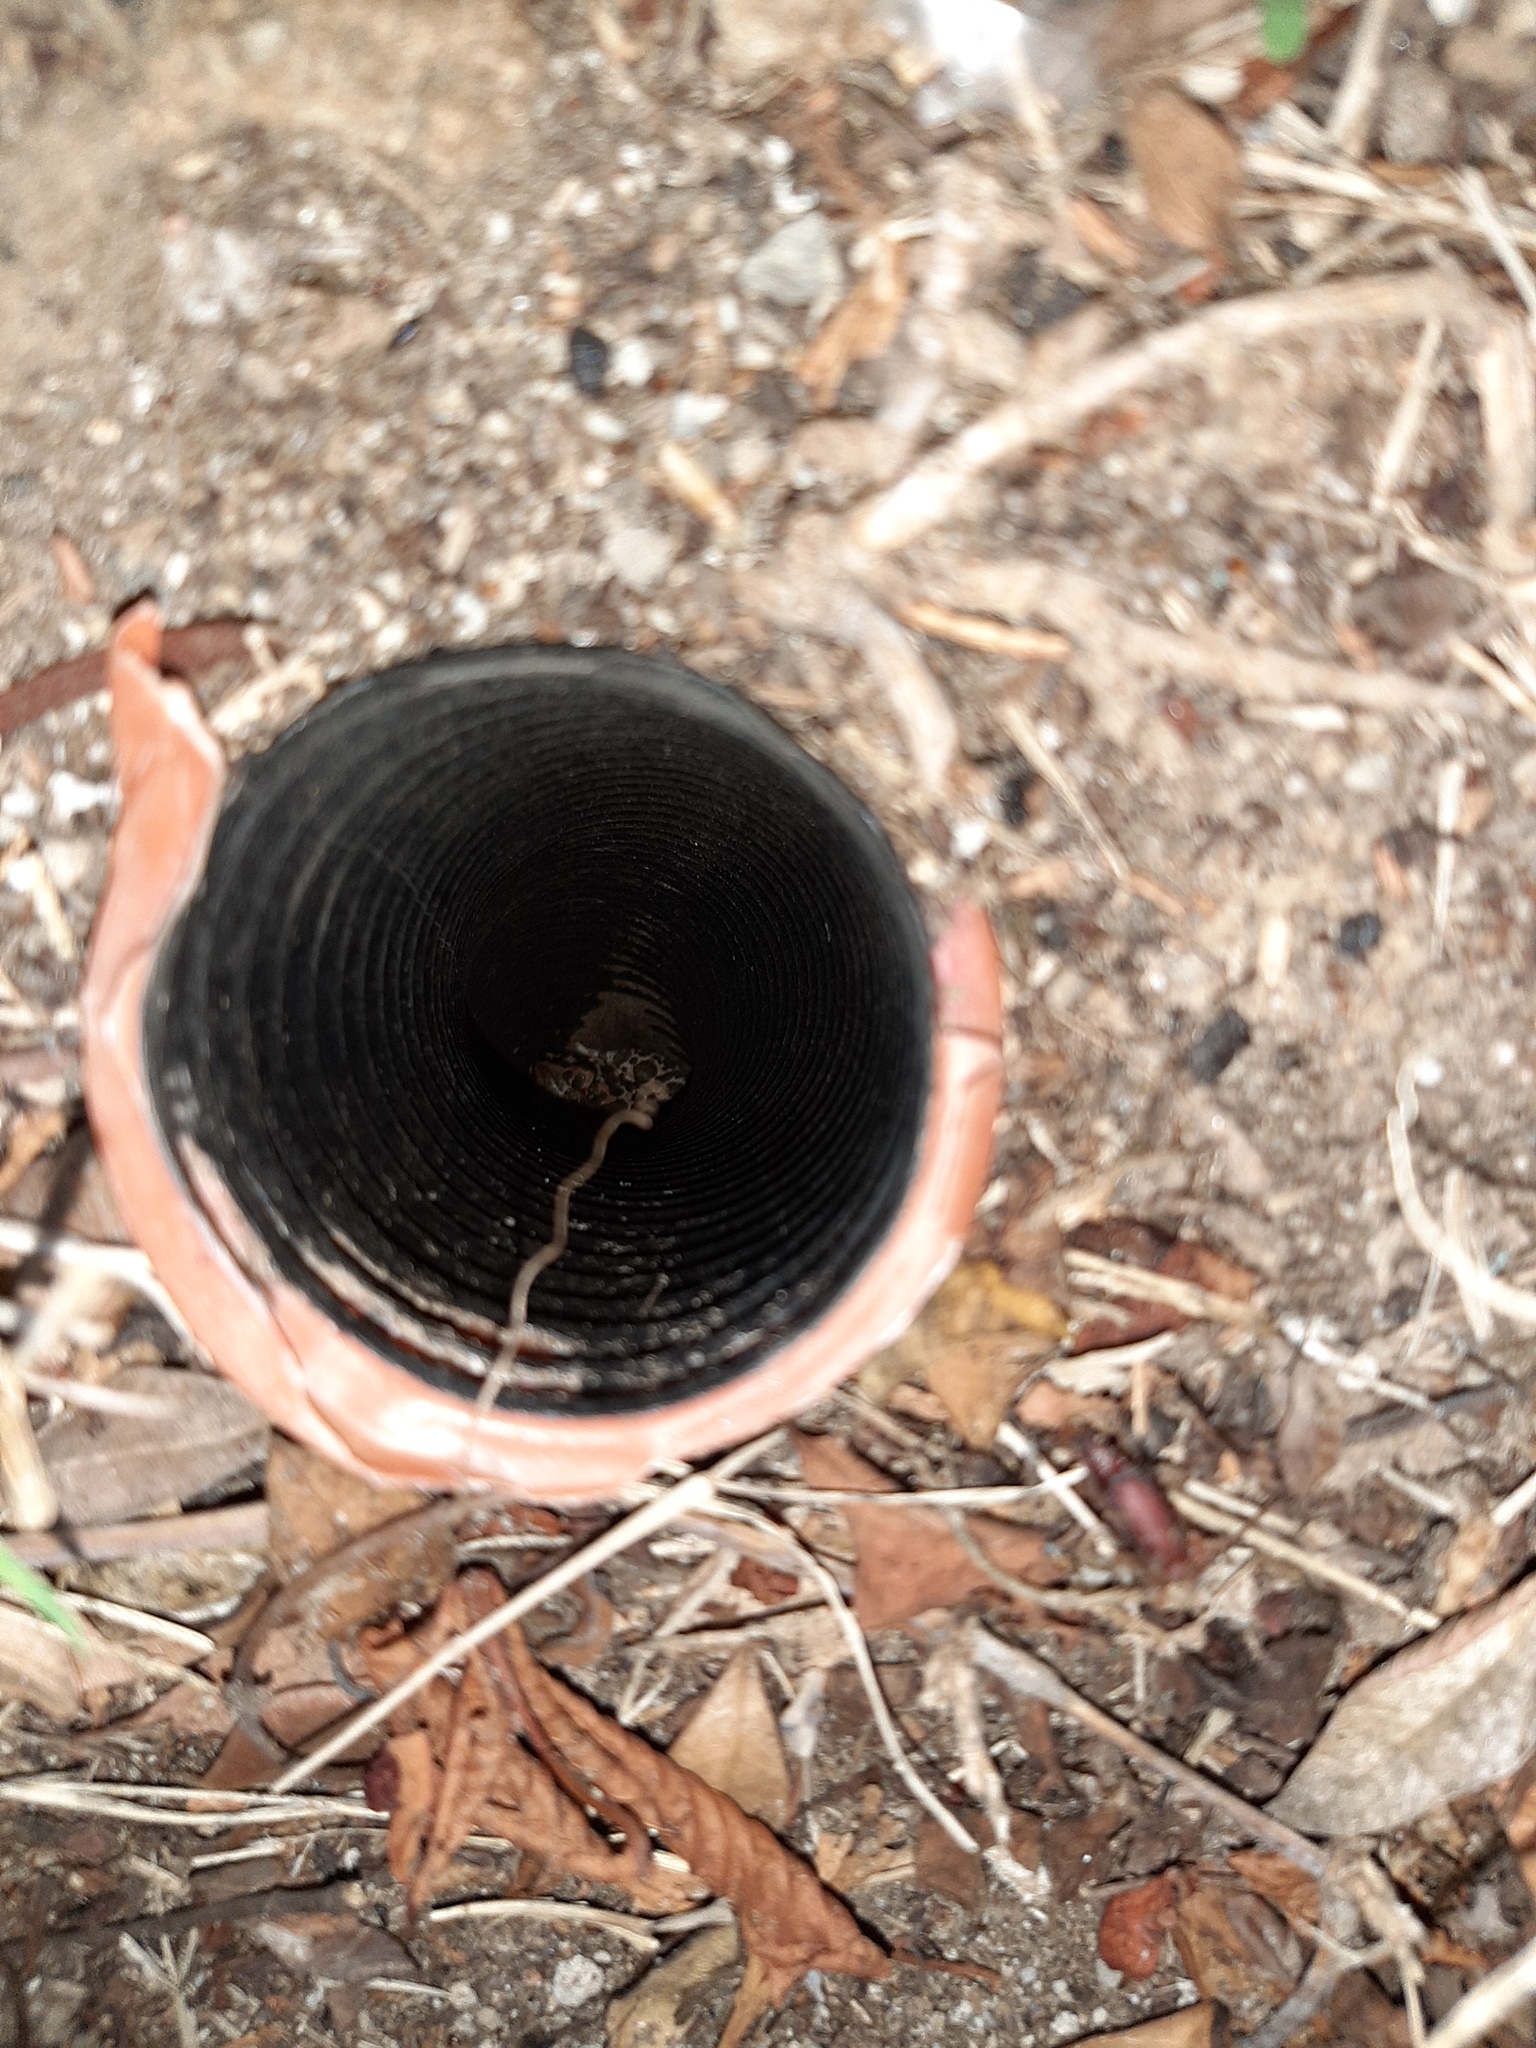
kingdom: Animalia
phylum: Chordata
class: Amphibia
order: Anura
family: Bufonidae
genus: Bufotes
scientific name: Bufotes viridis
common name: European green toad
